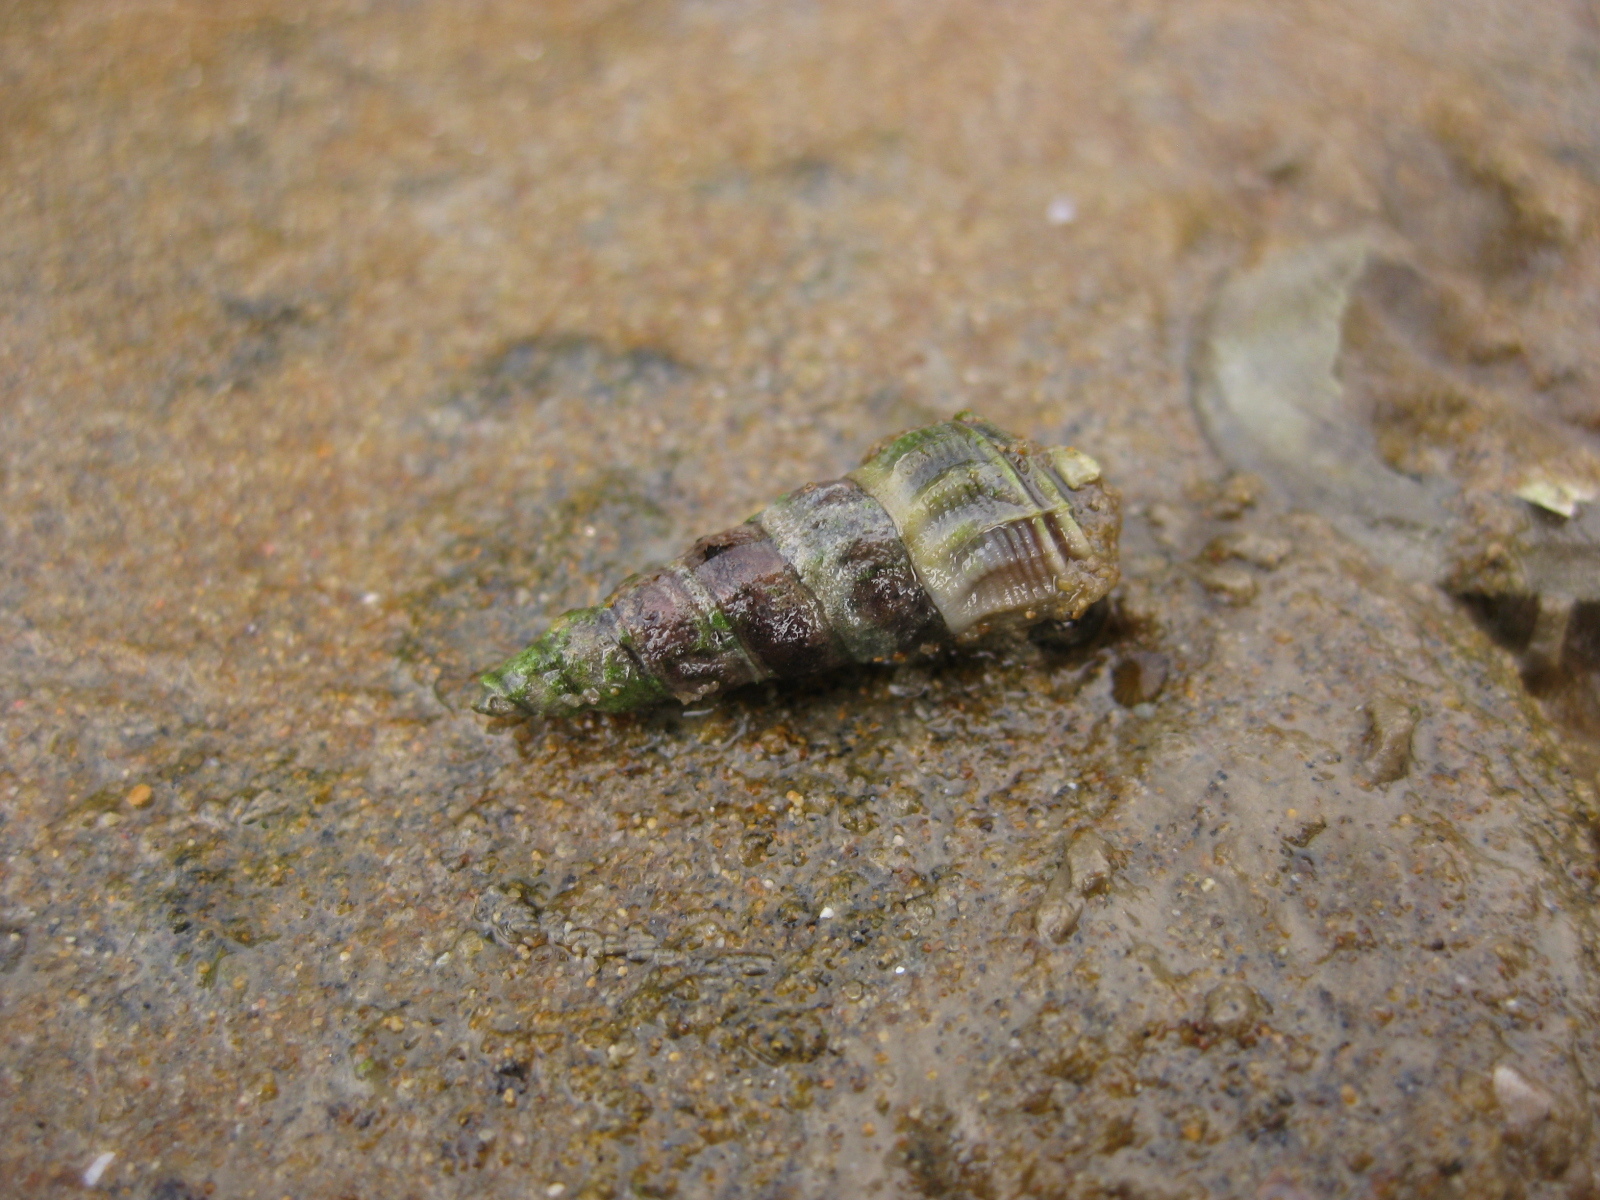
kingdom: Animalia
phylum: Mollusca
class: Gastropoda
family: Batillariidae
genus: Zeacumantus
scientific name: Zeacumantus lutulentus
